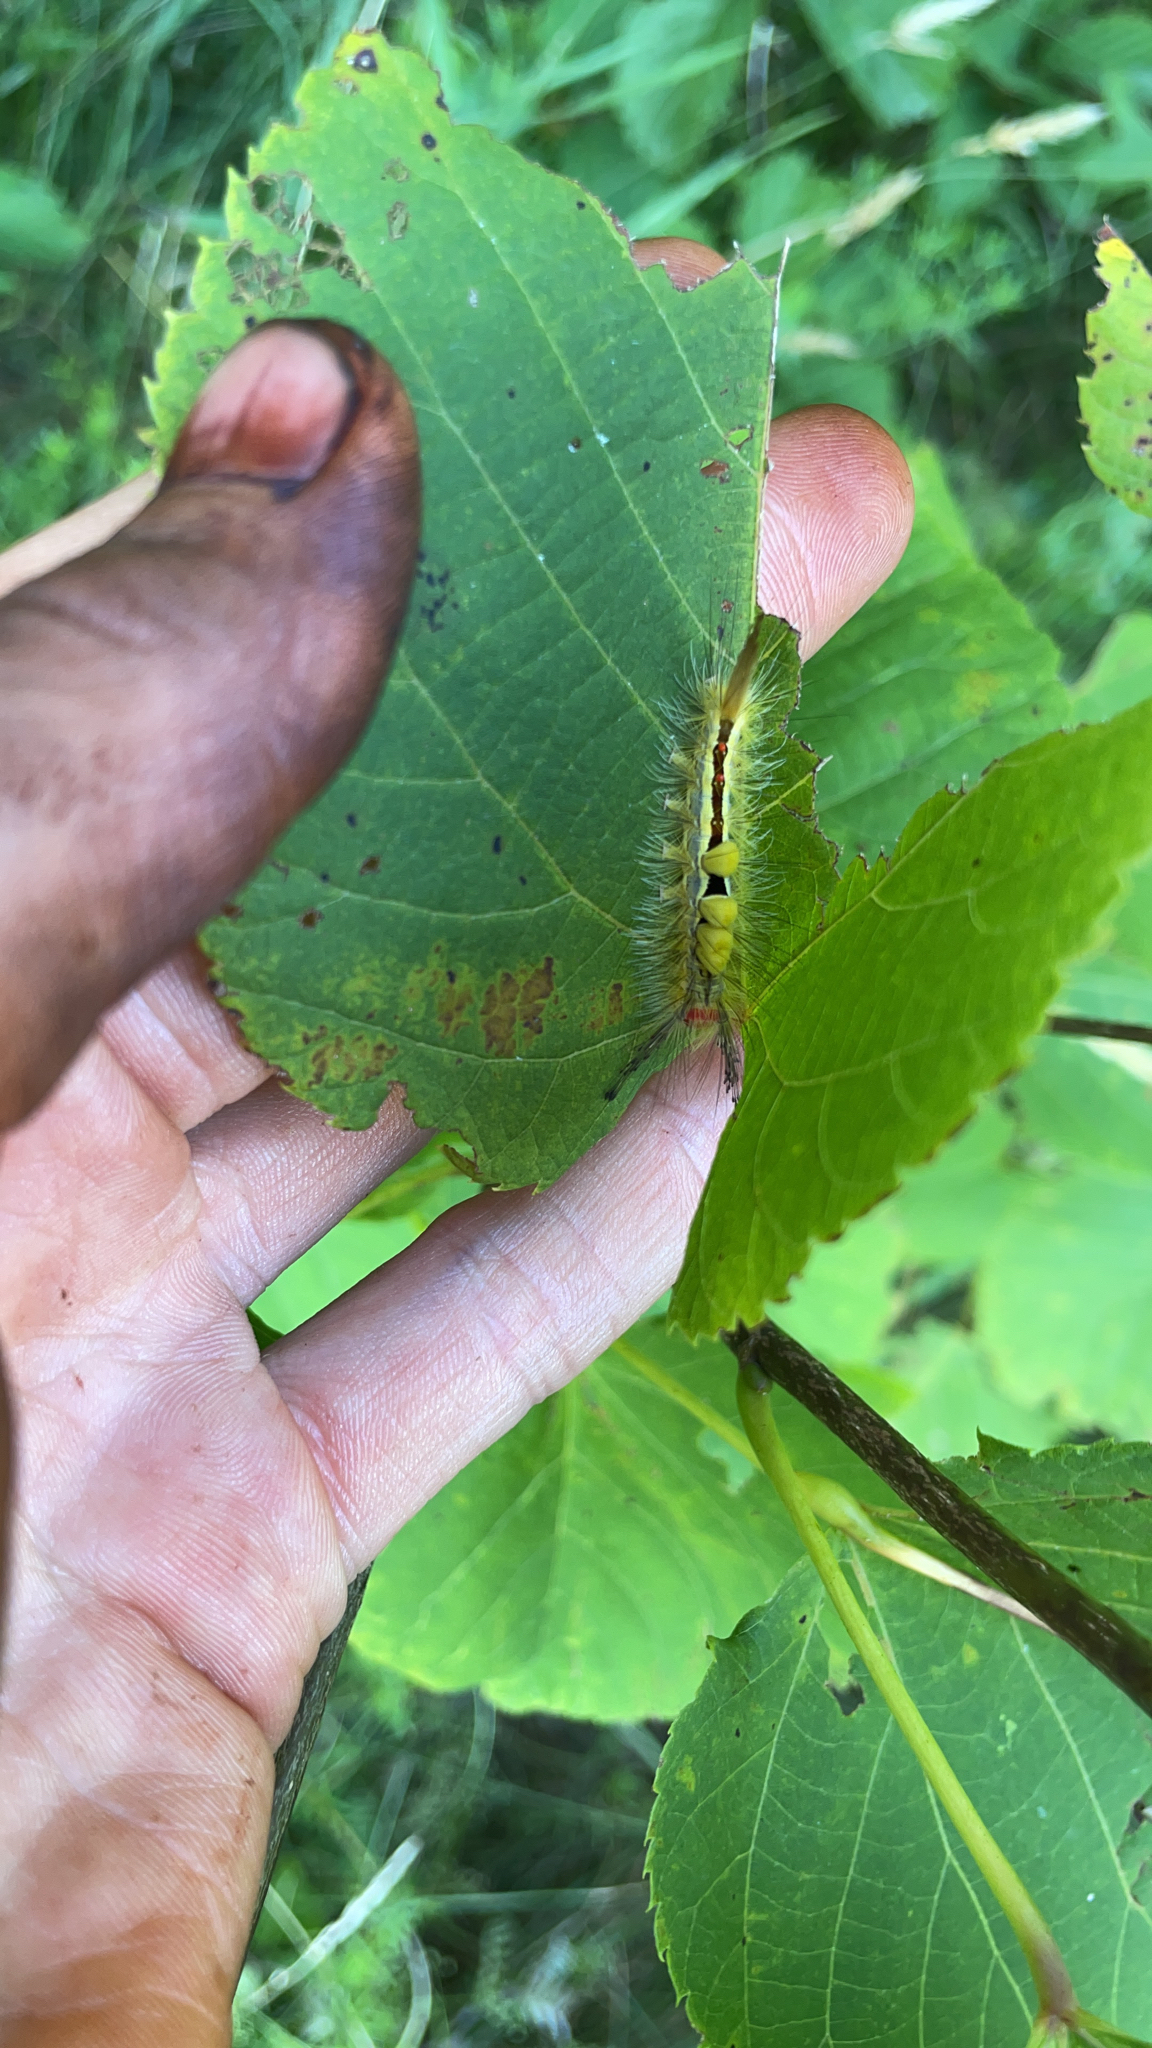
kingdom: Animalia
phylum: Arthropoda
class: Insecta
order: Lepidoptera
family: Erebidae
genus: Orgyia
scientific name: Orgyia leucostigma
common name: White-marked tussock moth
